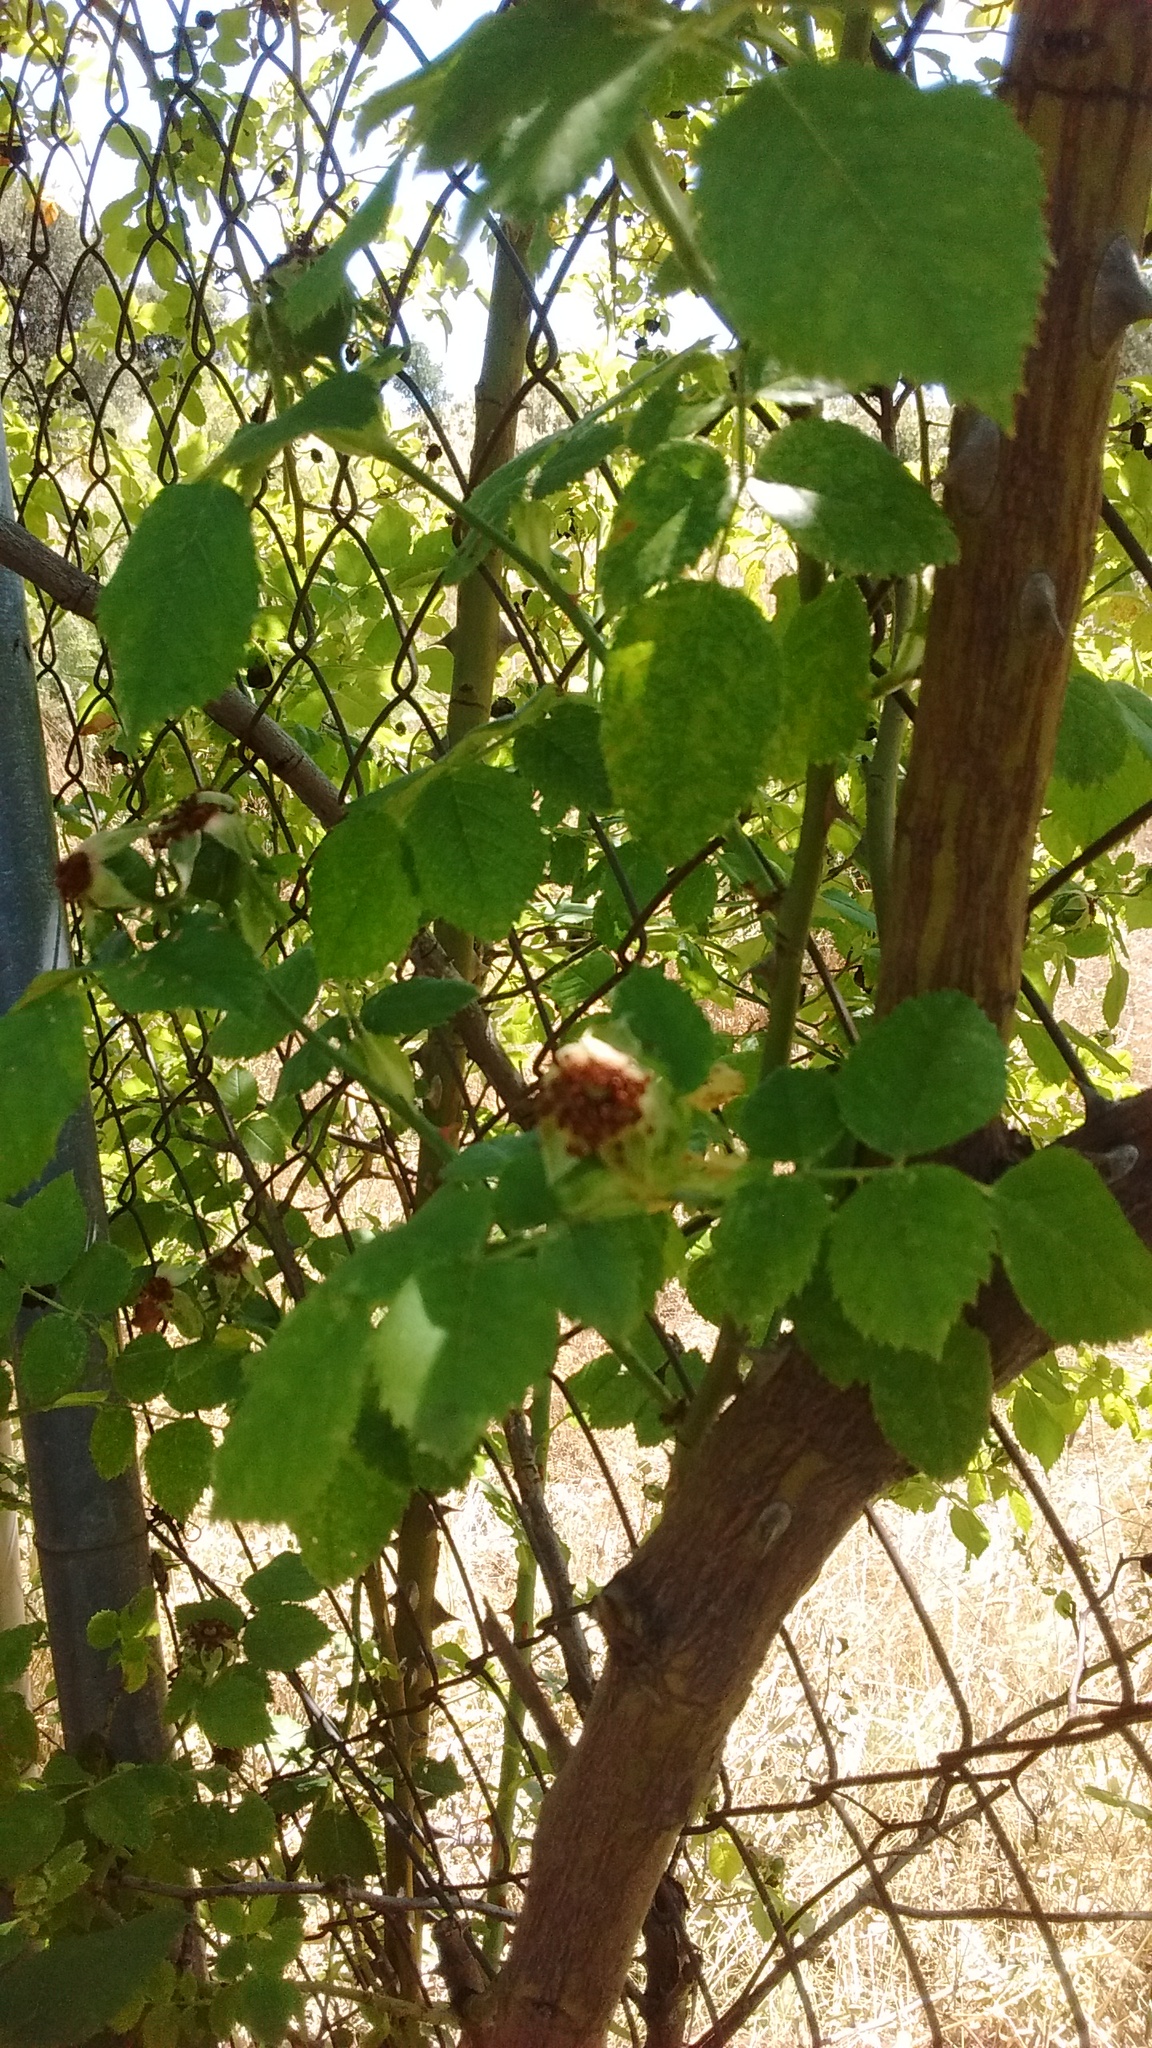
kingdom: Plantae
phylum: Tracheophyta
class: Magnoliopsida
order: Rosales
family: Rosaceae
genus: Rosa
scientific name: Rosa canina
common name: Dog rose
